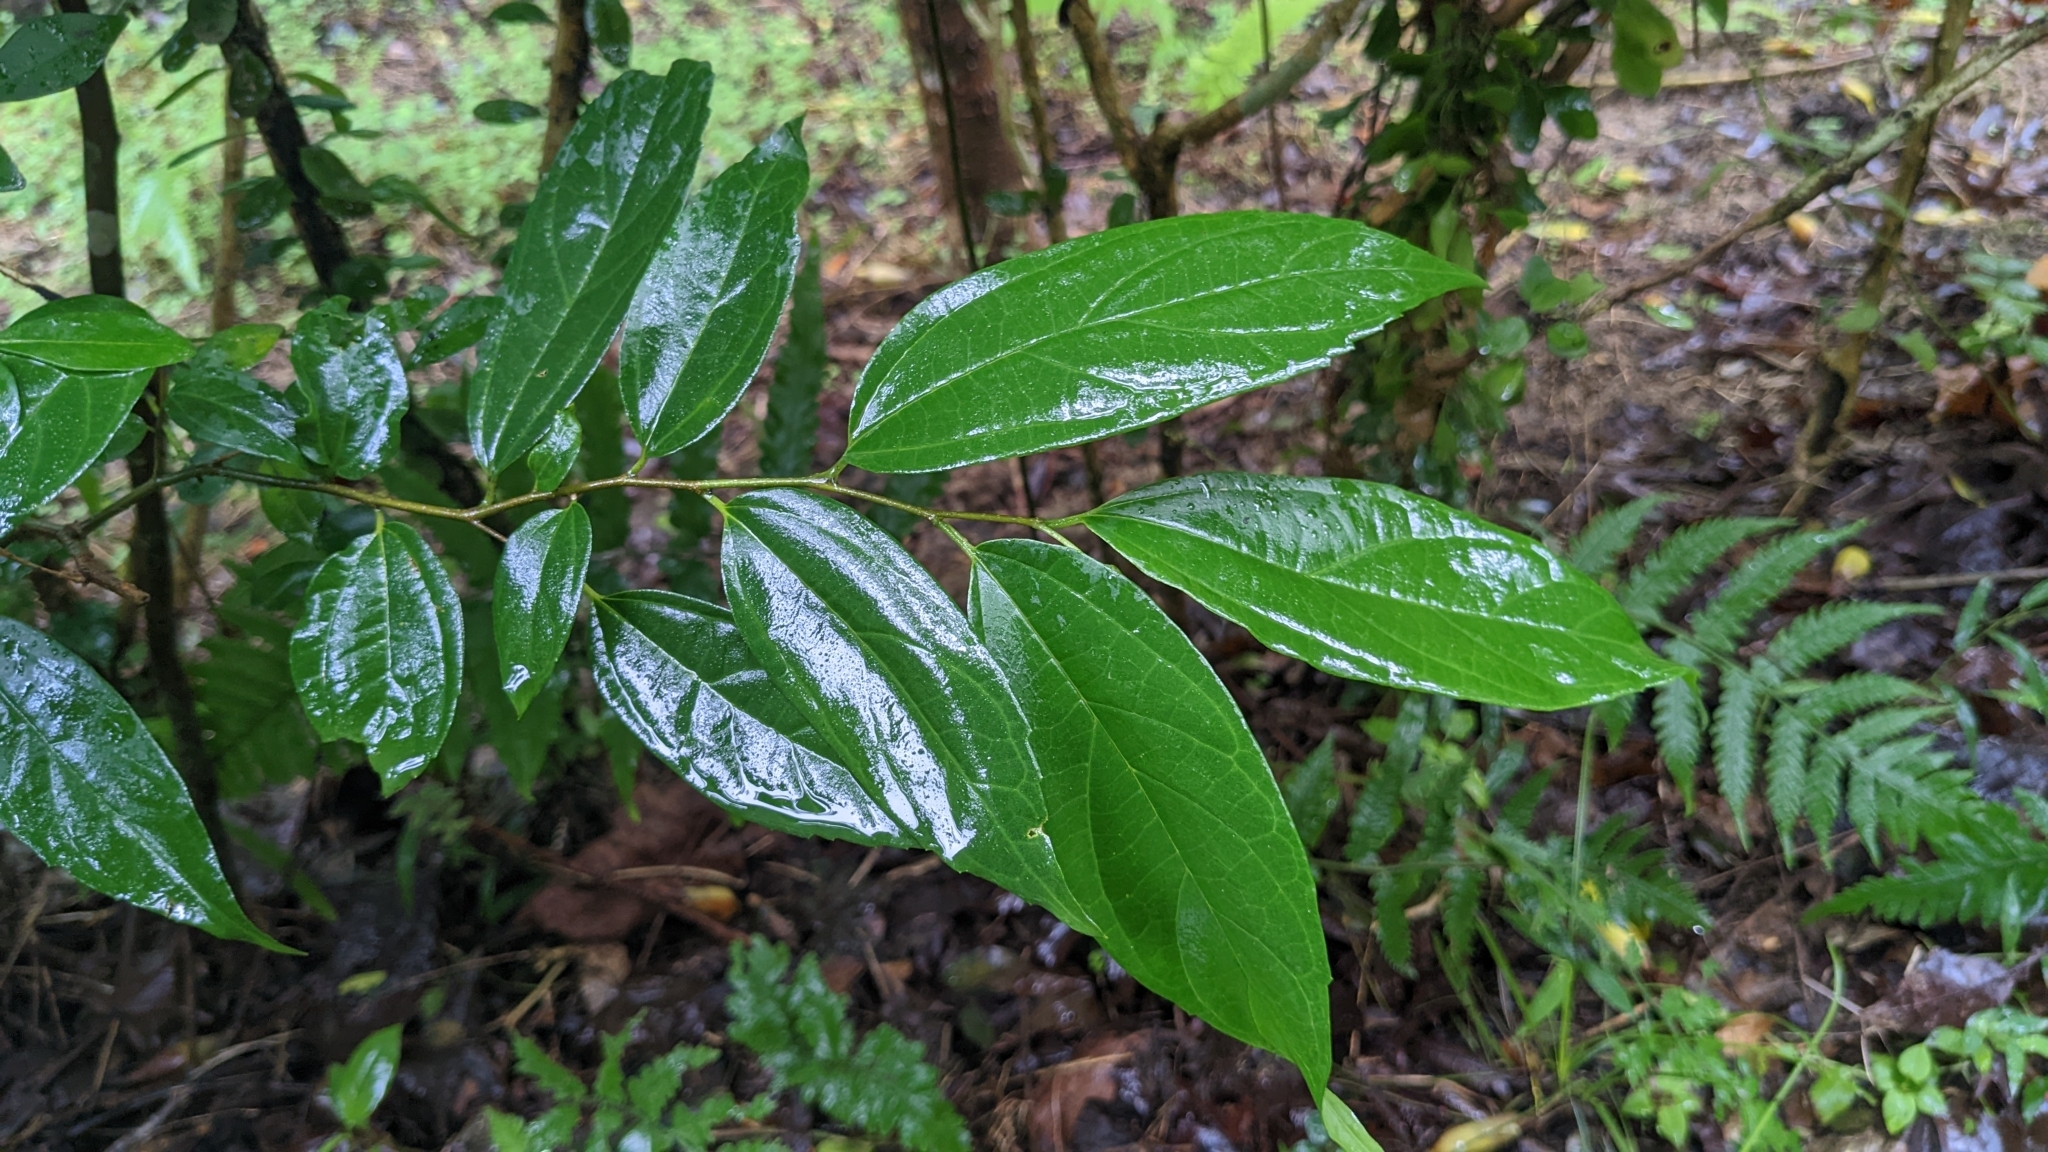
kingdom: Plantae
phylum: Tracheophyta
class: Magnoliopsida
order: Rosales
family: Cannabaceae
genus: Celtis
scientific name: Celtis tetrandra
